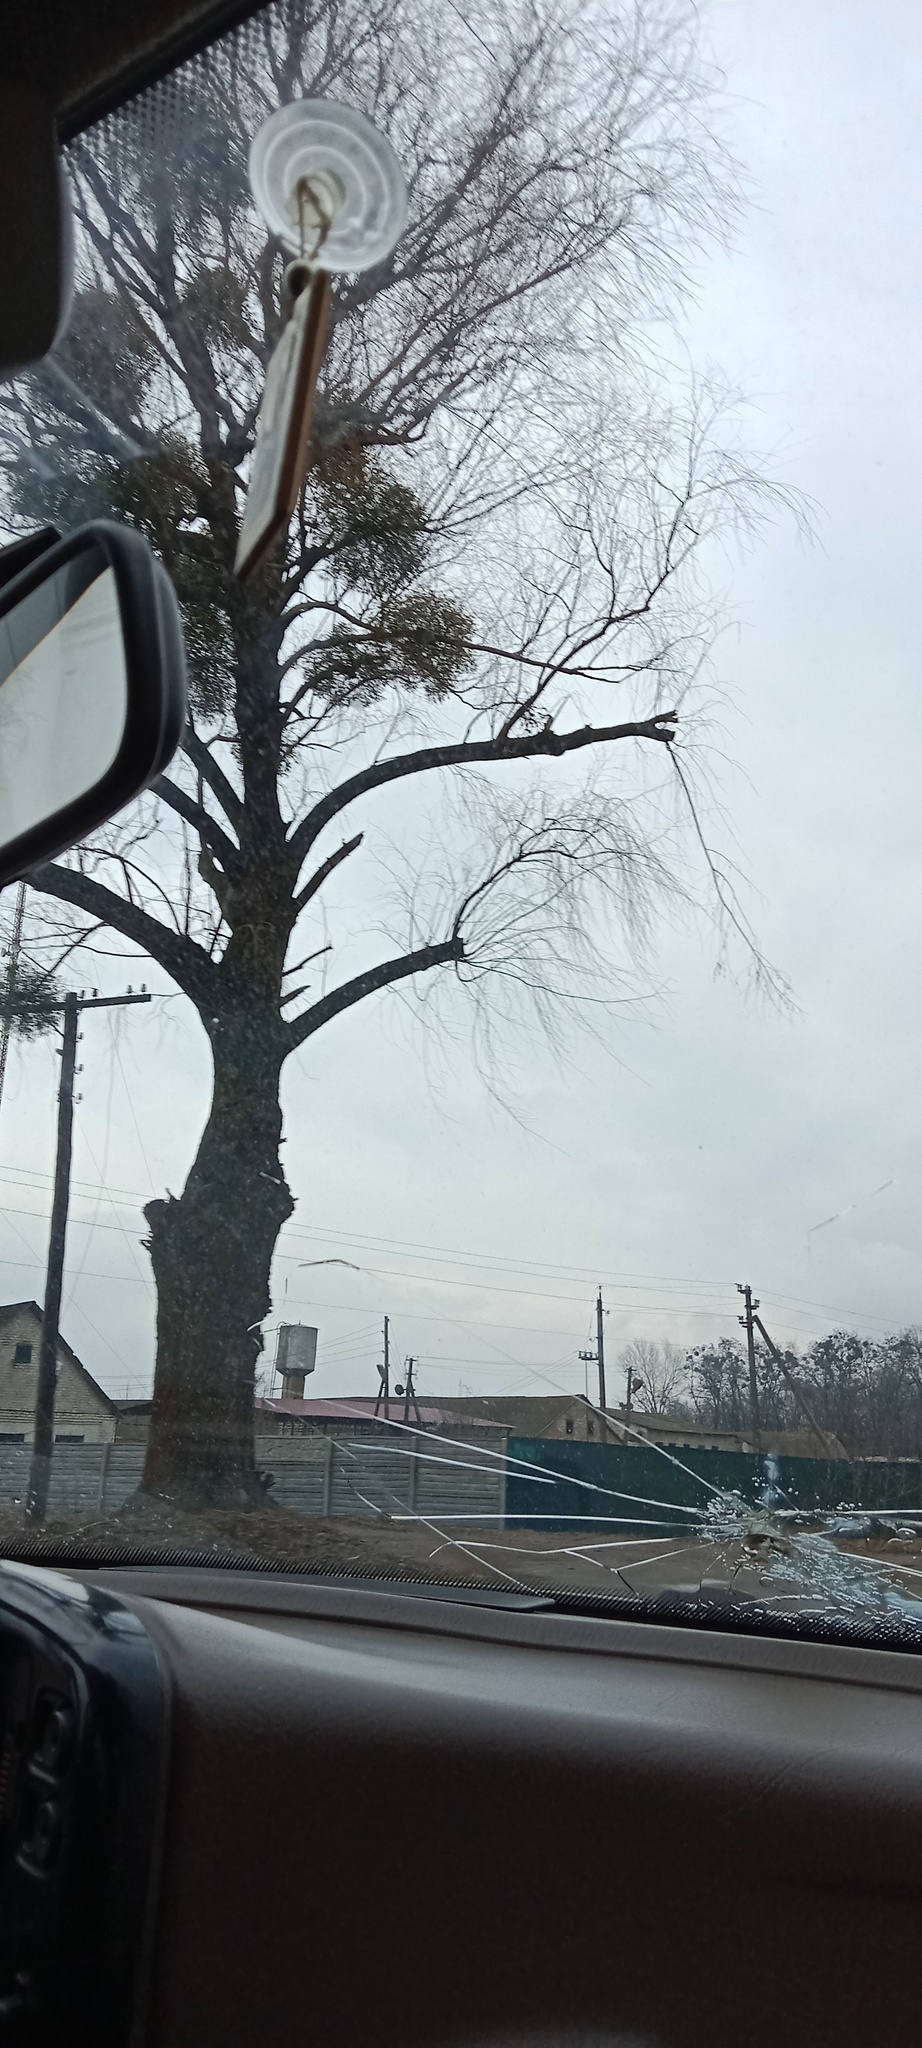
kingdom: Plantae
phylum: Tracheophyta
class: Magnoliopsida
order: Santalales
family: Viscaceae
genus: Viscum
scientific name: Viscum album
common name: Mistletoe
